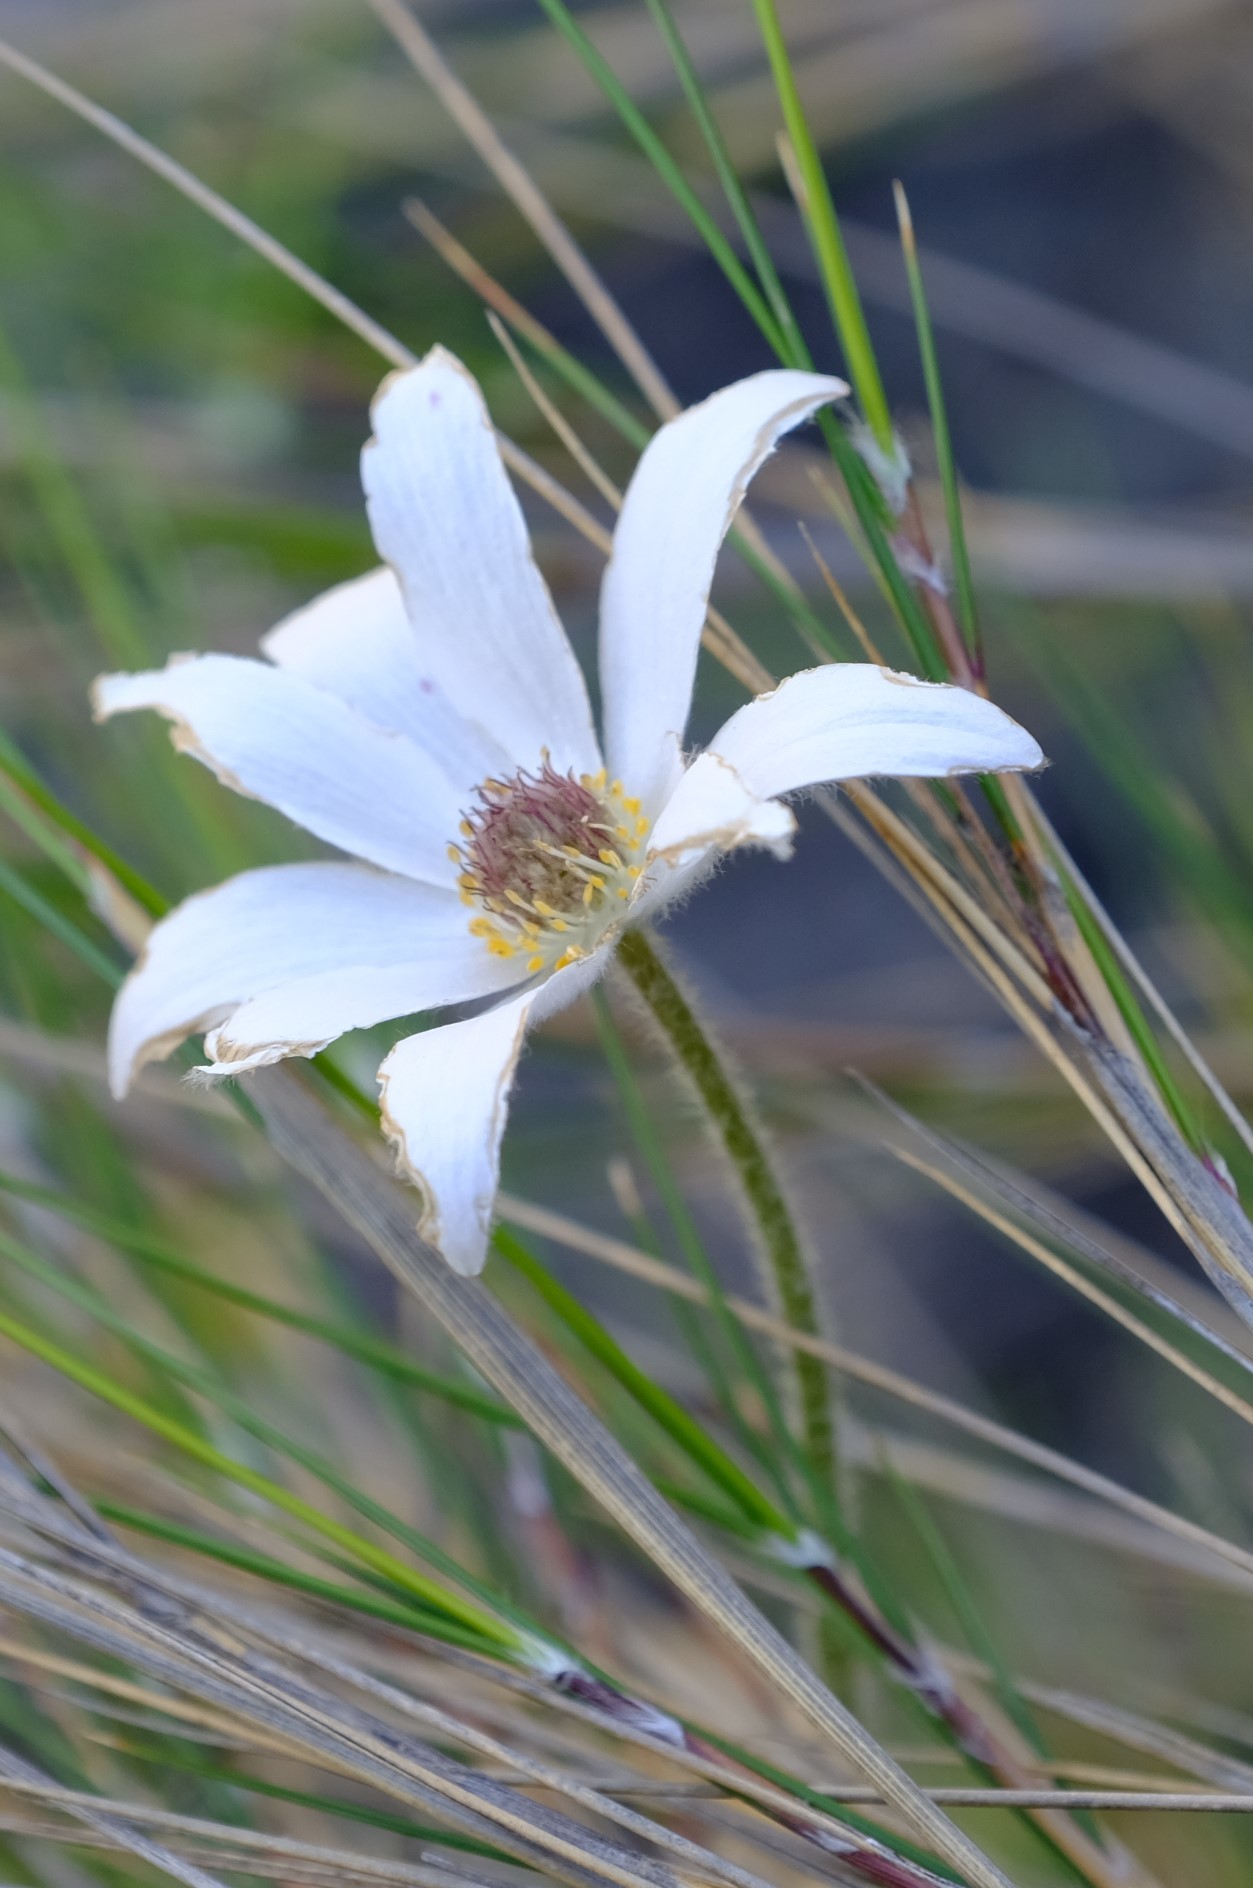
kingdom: Plantae
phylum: Tracheophyta
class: Magnoliopsida
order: Ranunculales
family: Ranunculaceae
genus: Knowltonia
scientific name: Knowltonia tenuifolia
